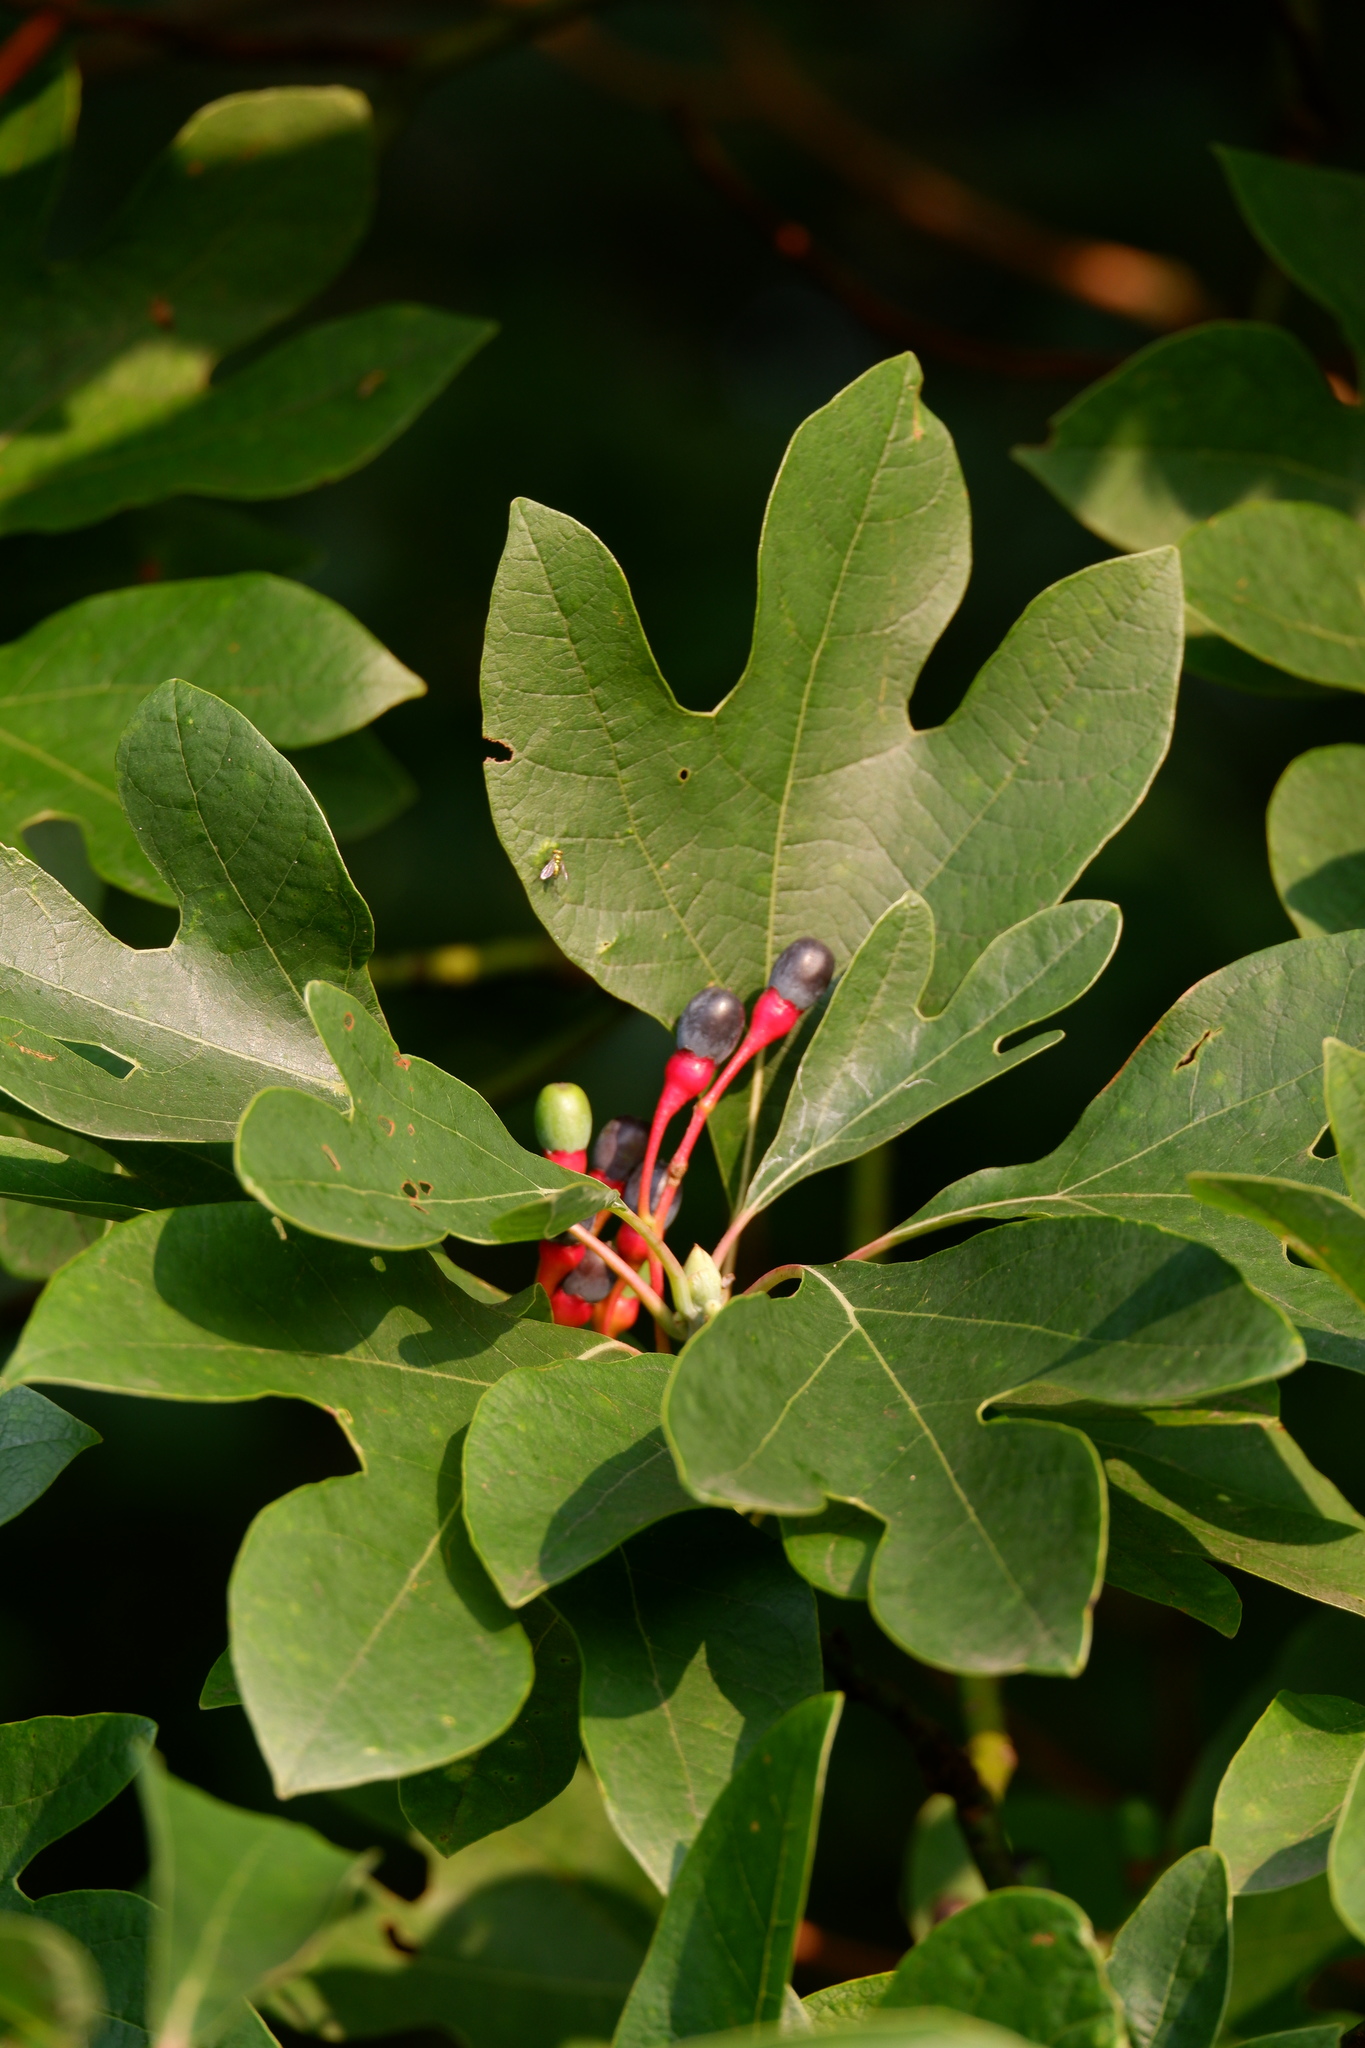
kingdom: Plantae
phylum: Tracheophyta
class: Magnoliopsida
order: Laurales
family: Lauraceae
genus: Sassafras
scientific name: Sassafras albidum
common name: Sassafras
